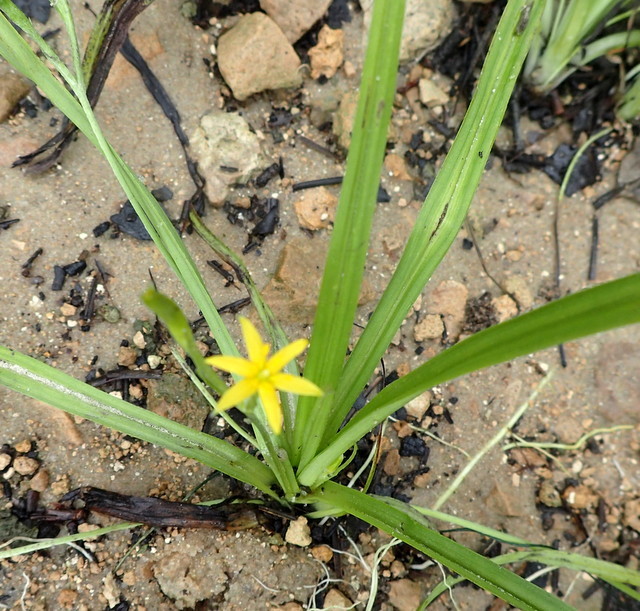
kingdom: Plantae
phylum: Tracheophyta
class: Liliopsida
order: Asparagales
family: Hypoxidaceae
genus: Hypoxis
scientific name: Hypoxis curtissii
